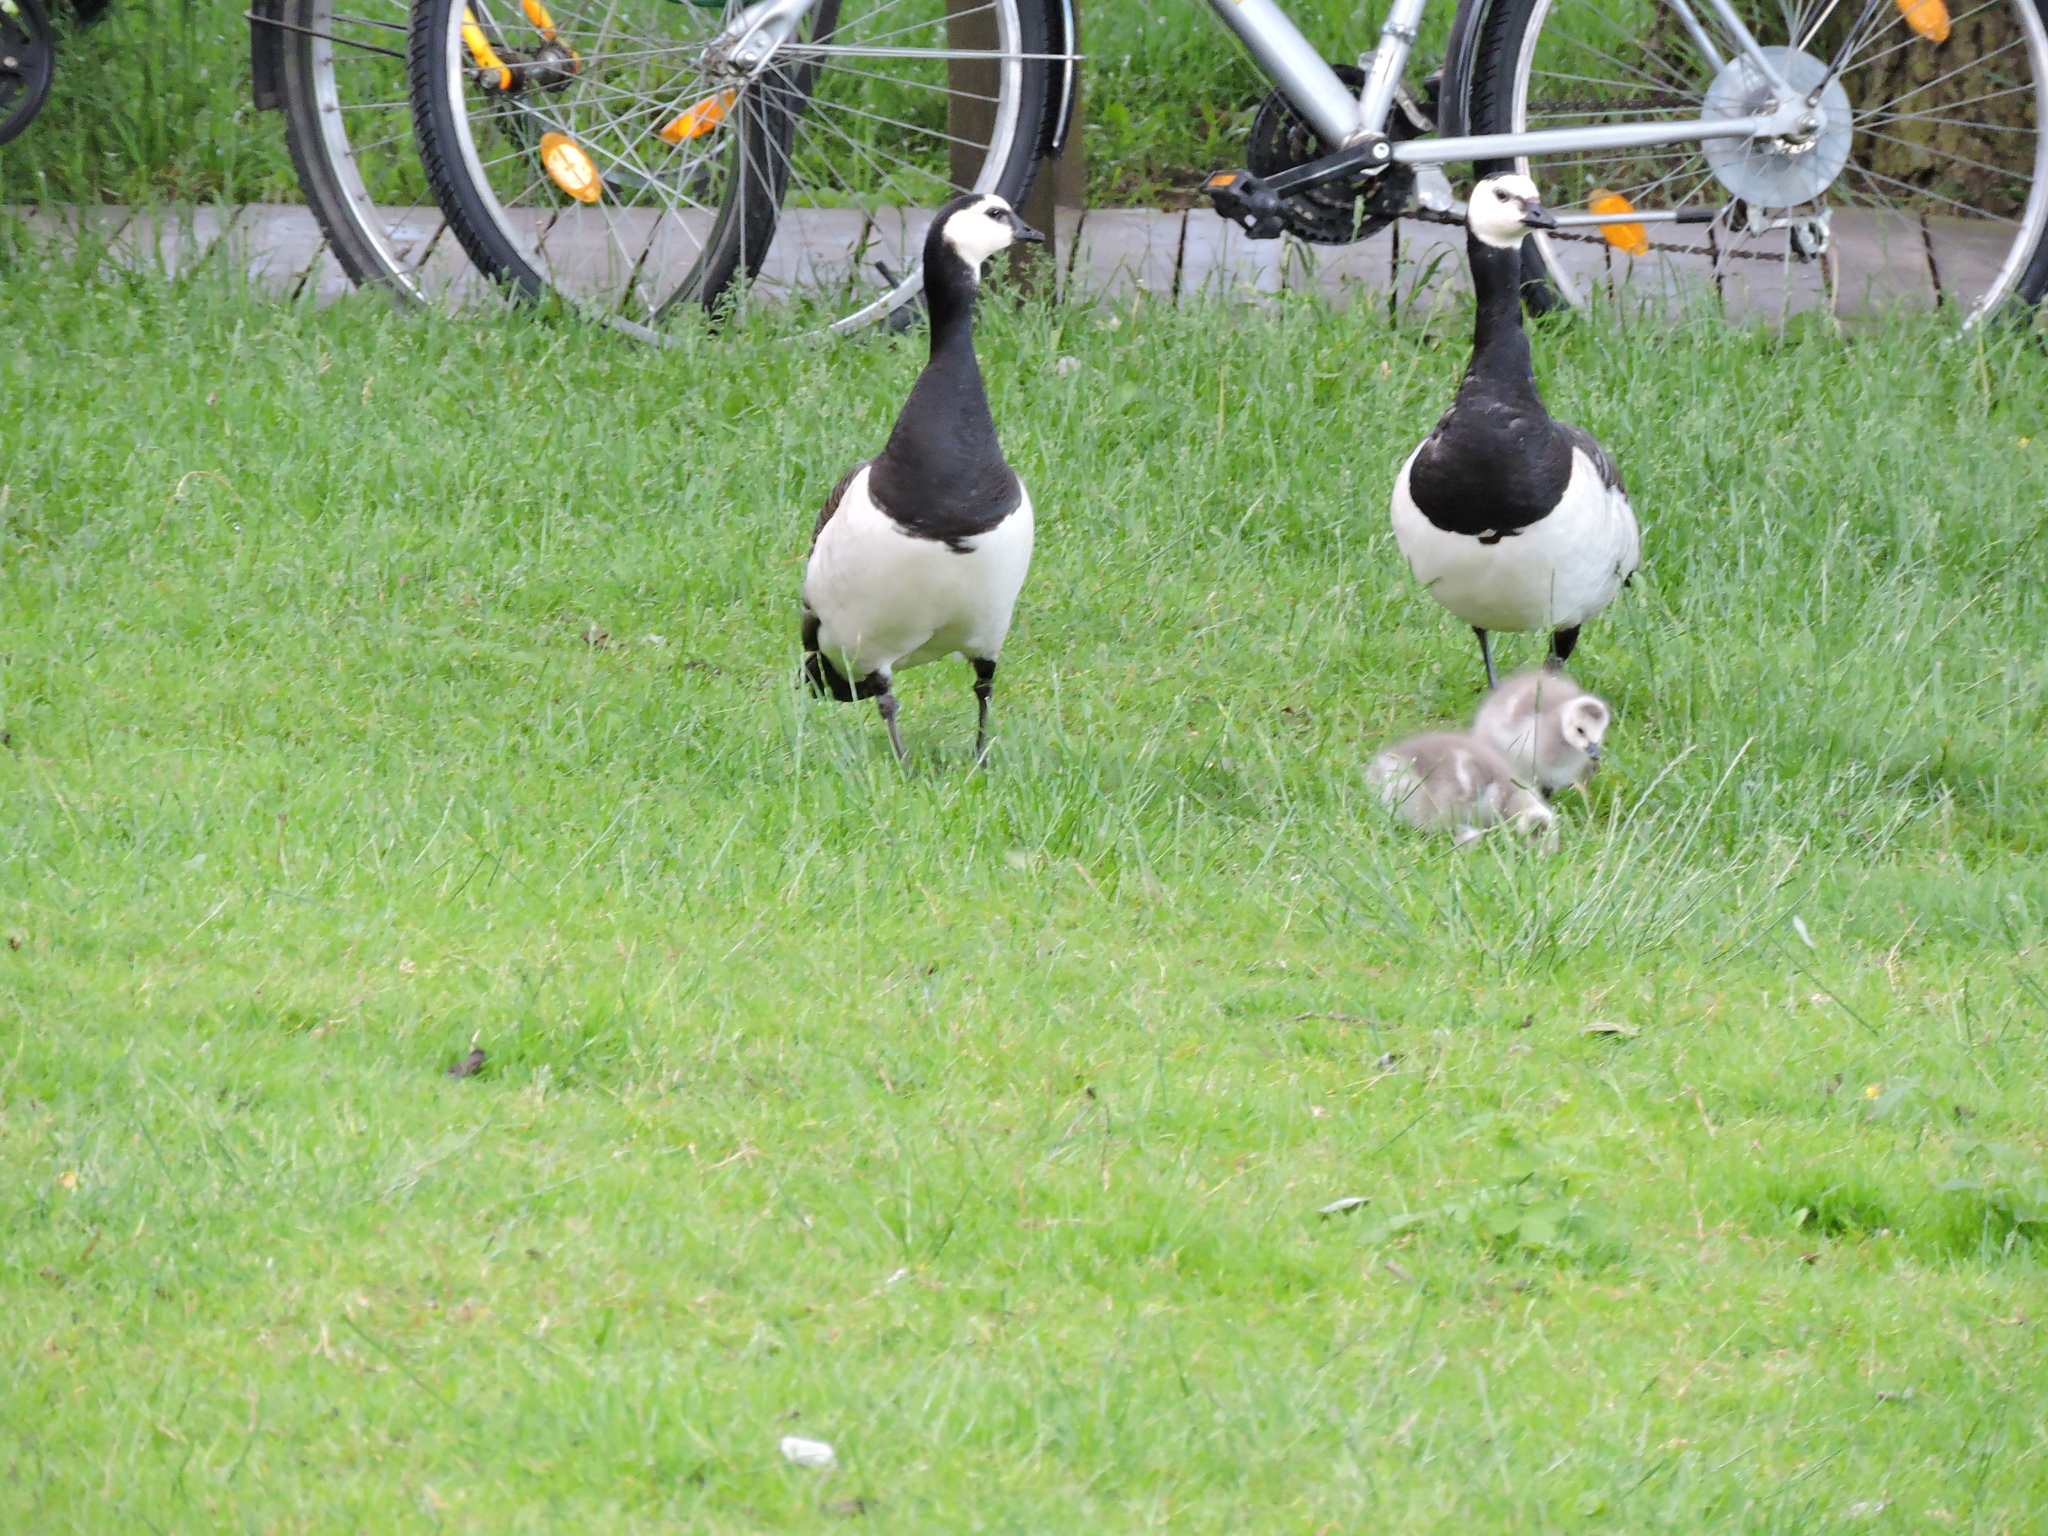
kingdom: Animalia
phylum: Chordata
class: Aves
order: Anseriformes
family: Anatidae
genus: Branta
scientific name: Branta leucopsis
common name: Barnacle goose
